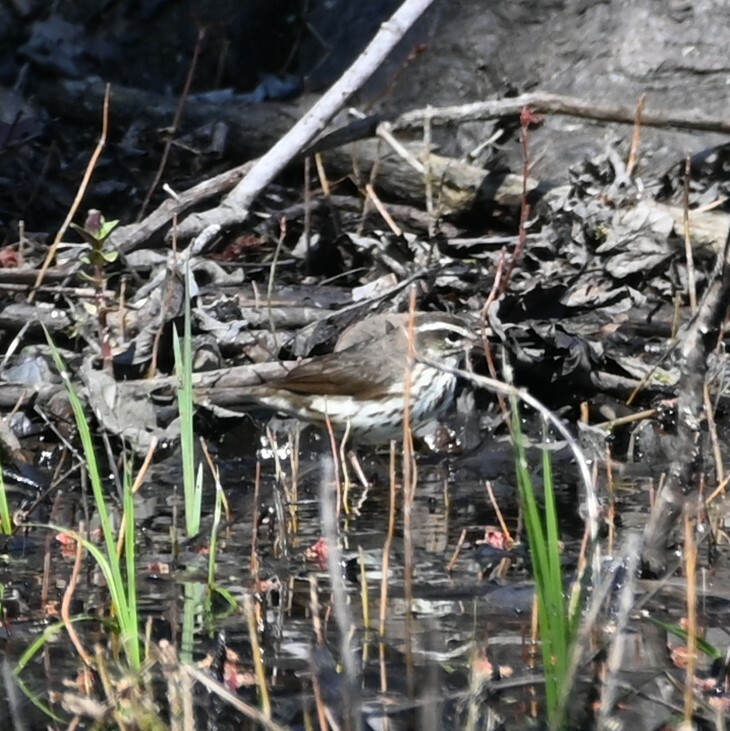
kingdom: Animalia
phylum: Chordata
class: Aves
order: Passeriformes
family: Parulidae
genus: Parkesia
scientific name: Parkesia motacilla
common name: Louisiana waterthrush
